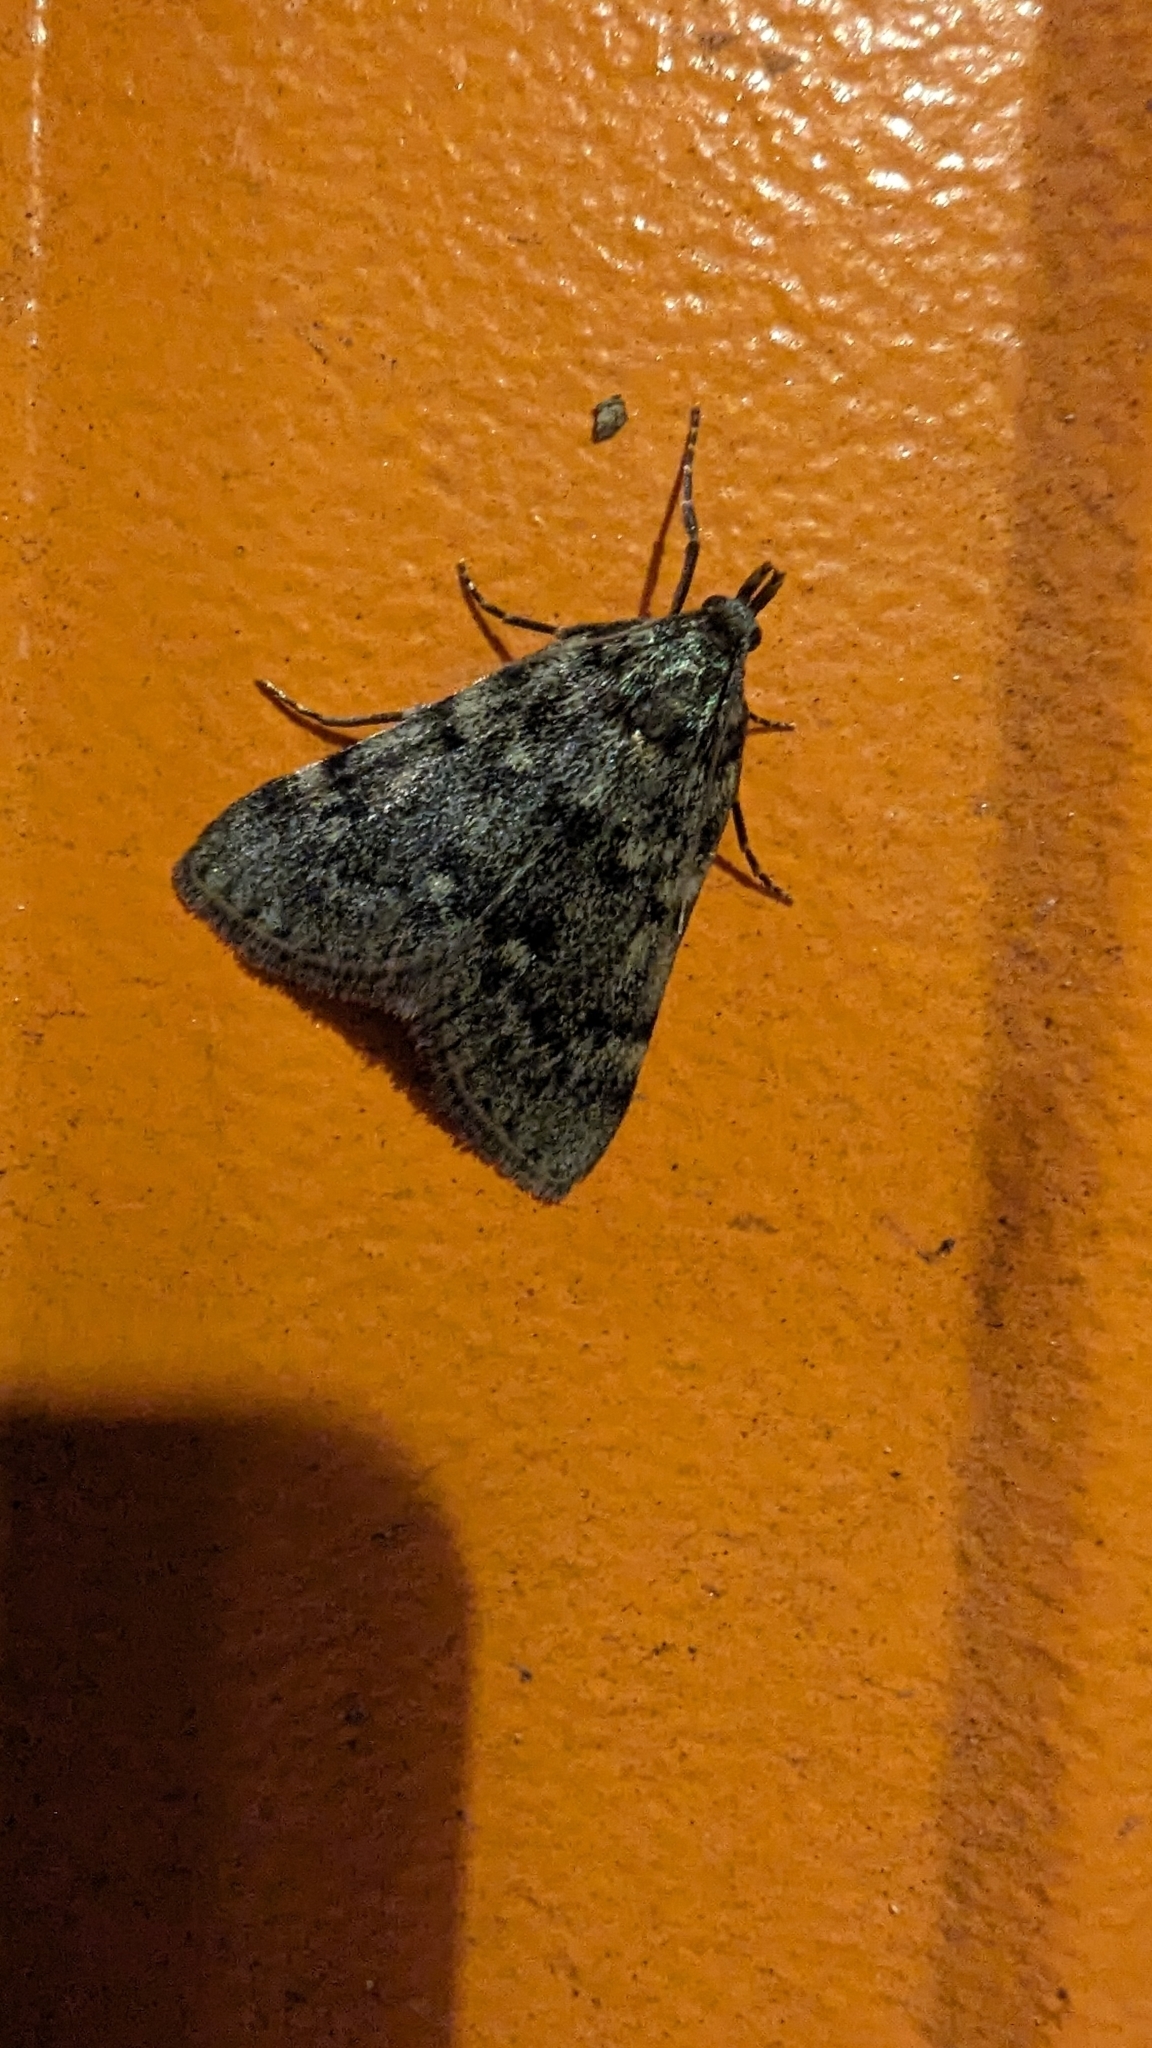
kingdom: Animalia
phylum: Arthropoda
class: Insecta
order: Lepidoptera
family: Pyralidae
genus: Aglossa
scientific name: Aglossa pinguinalis
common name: Large tabby
